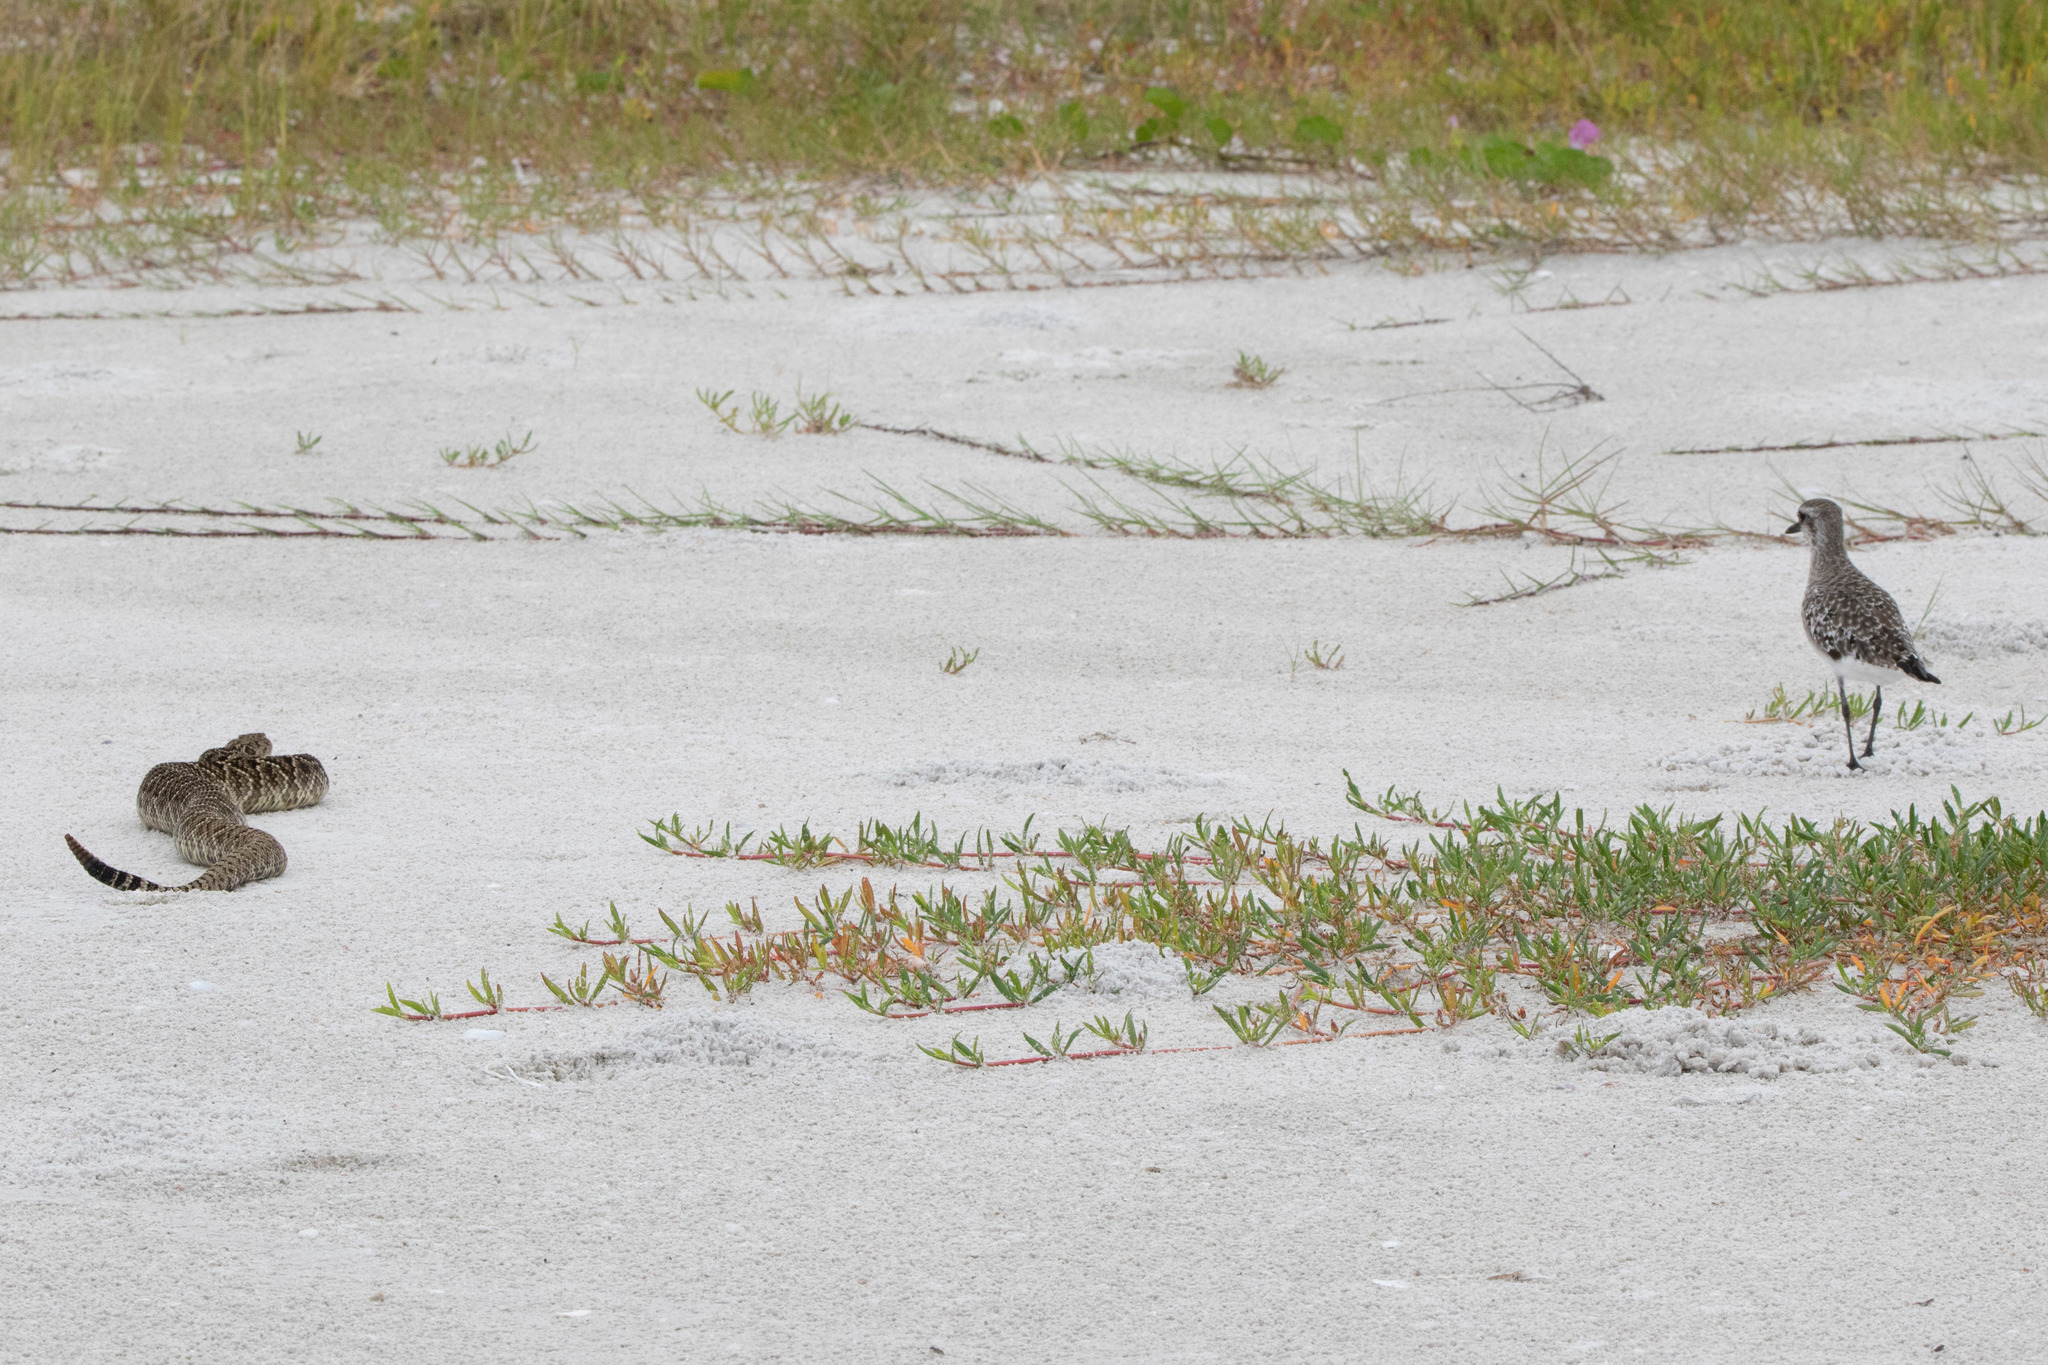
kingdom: Animalia
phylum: Chordata
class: Squamata
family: Viperidae
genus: Crotalus
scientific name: Crotalus adamanteus
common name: Eastern diamondback rattlesnake
